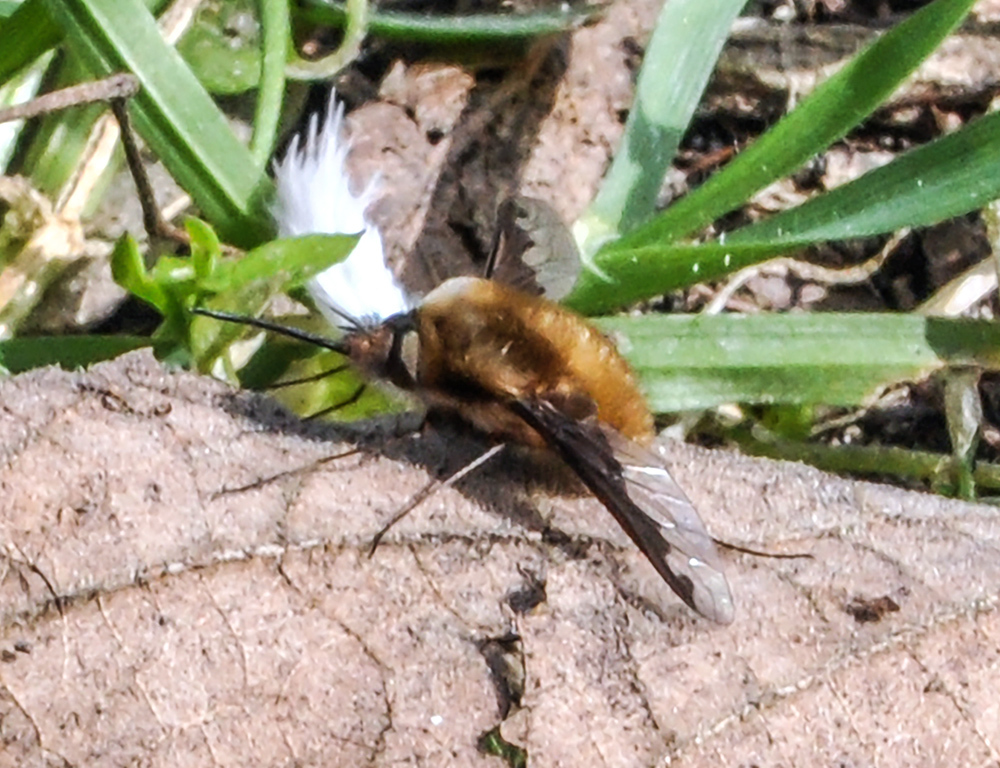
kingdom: Animalia
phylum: Arthropoda
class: Insecta
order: Diptera
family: Bombyliidae
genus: Bombylius
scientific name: Bombylius major
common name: Bee fly
